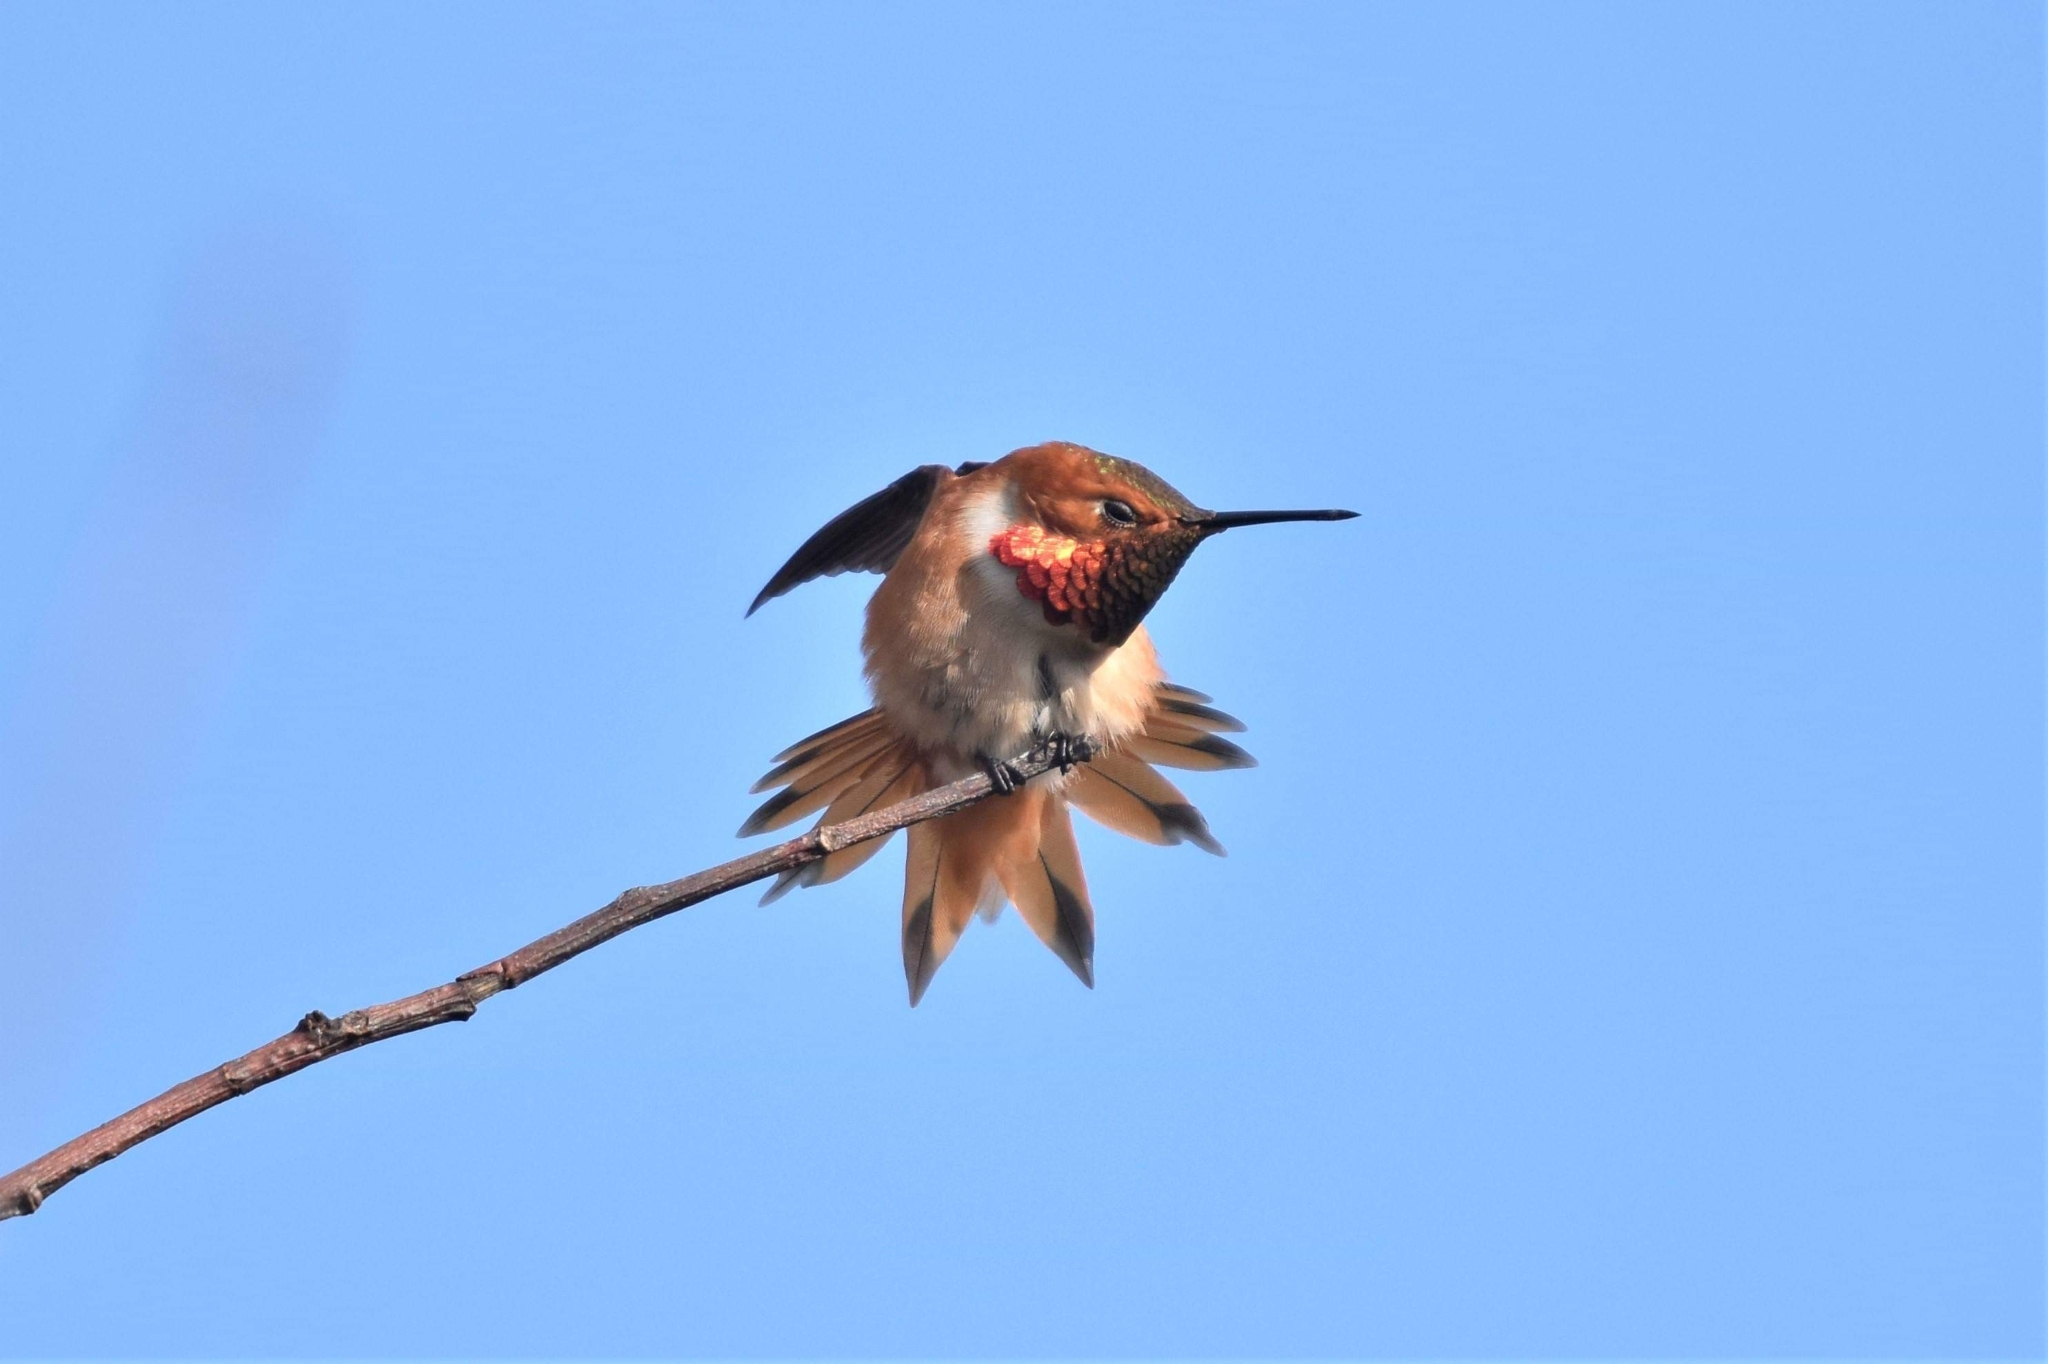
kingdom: Animalia
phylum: Chordata
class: Aves
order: Apodiformes
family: Trochilidae
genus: Selasphorus
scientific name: Selasphorus rufus
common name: Rufous hummingbird
